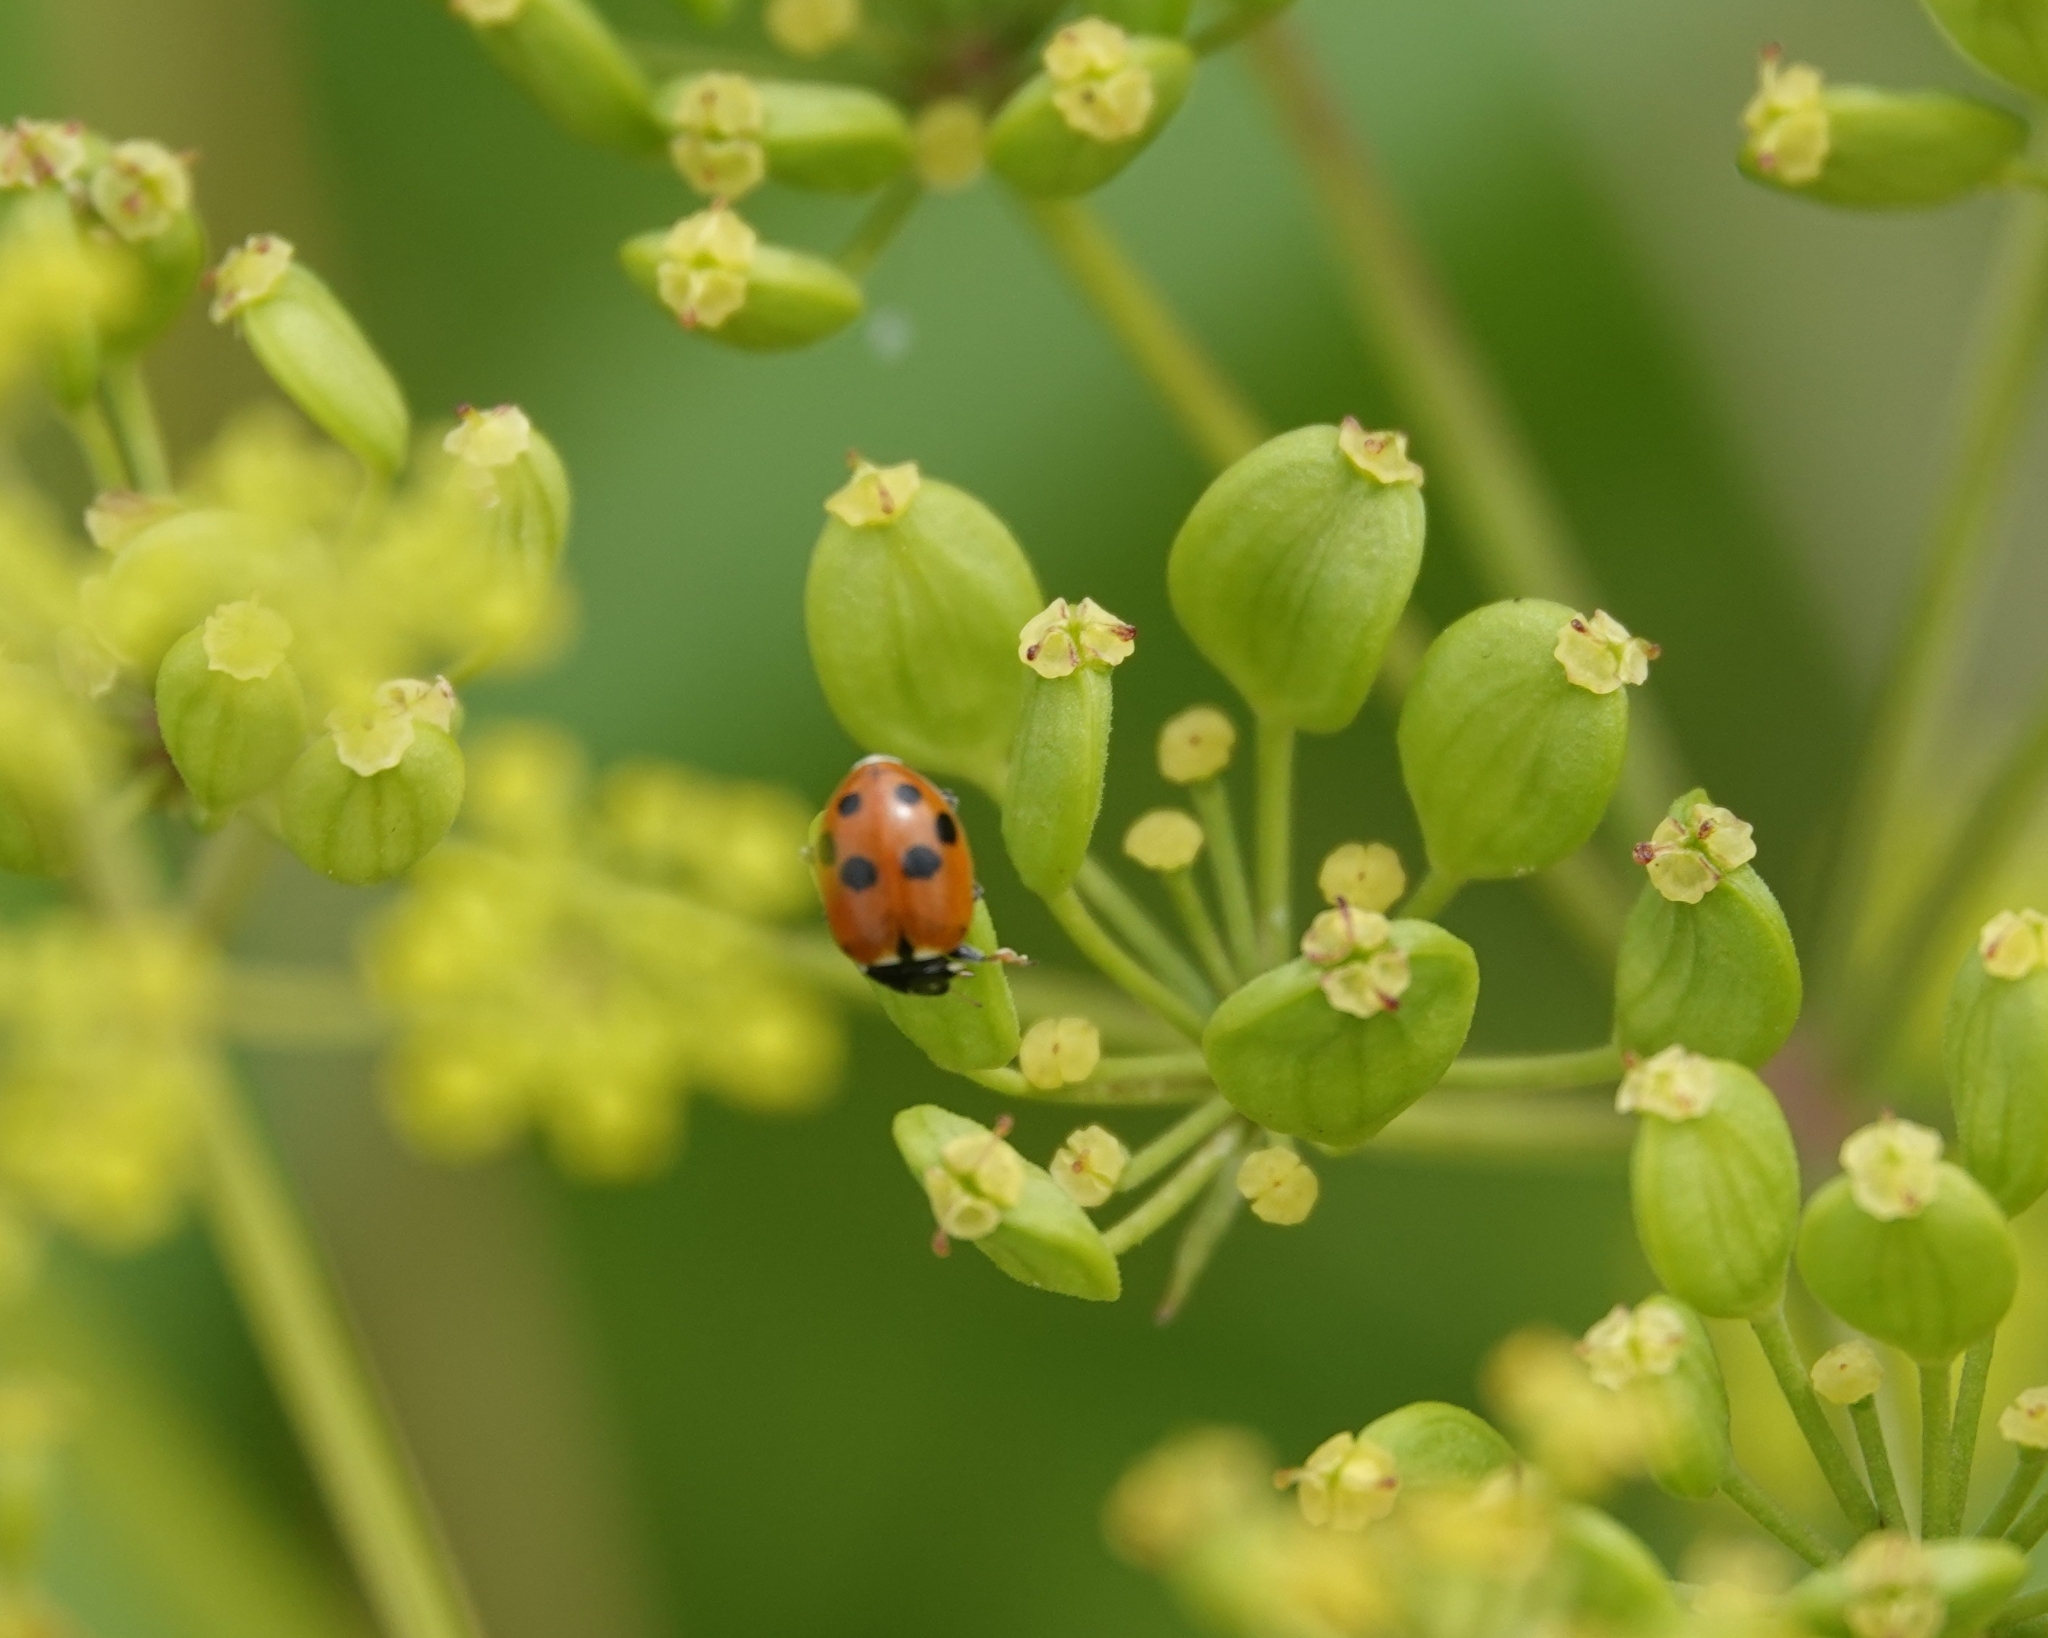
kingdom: Animalia
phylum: Arthropoda
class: Insecta
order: Coleoptera
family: Coccinellidae
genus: Hippodamia
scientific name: Hippodamia variegata
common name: Ladybird beetle
